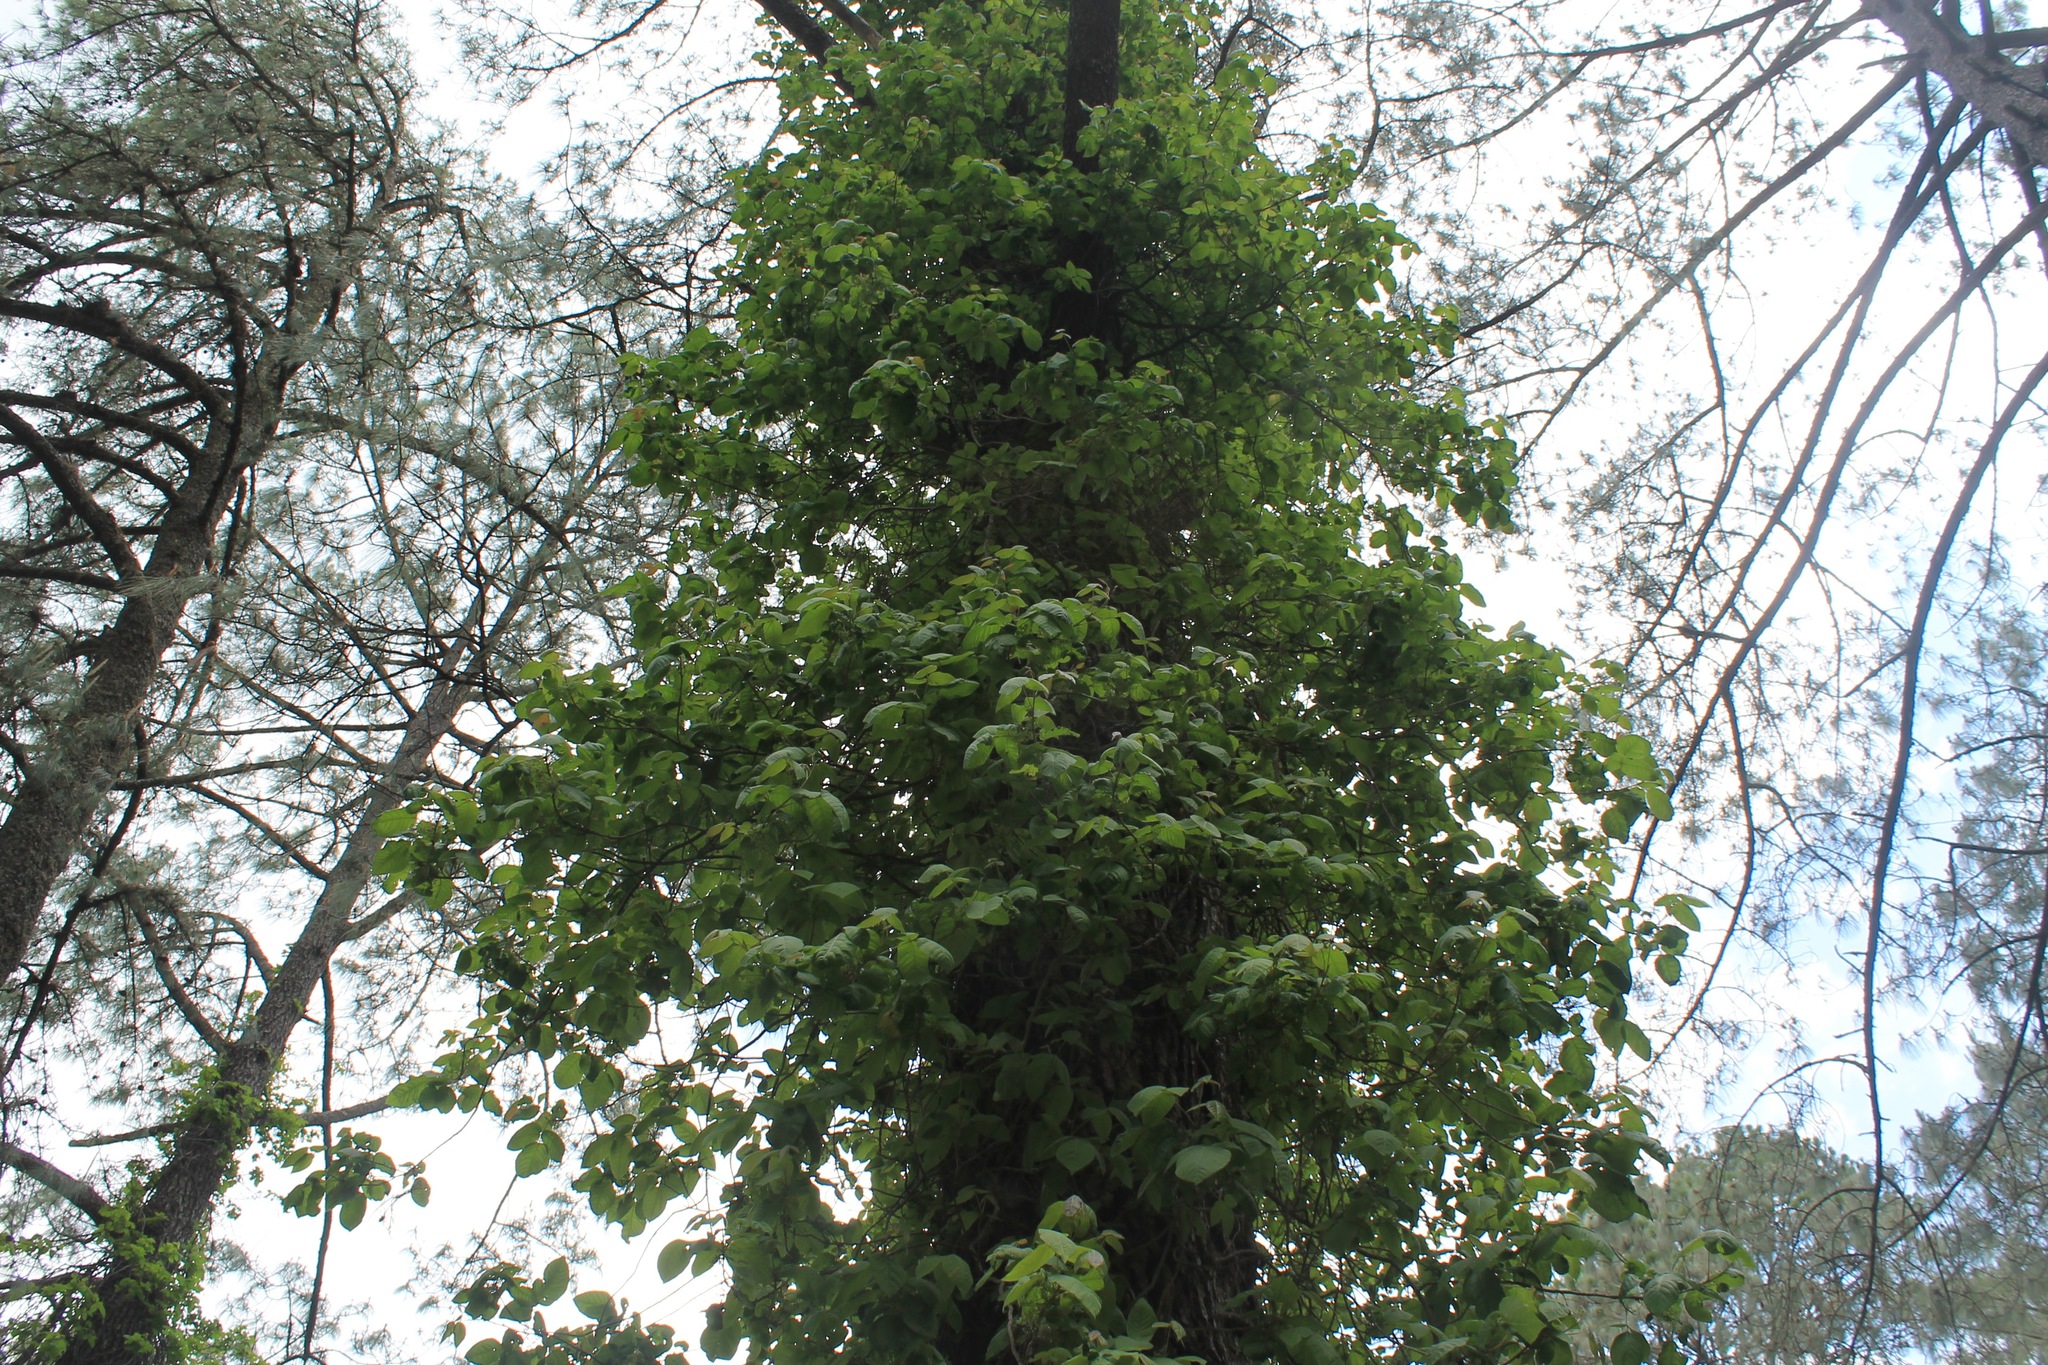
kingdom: Plantae
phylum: Tracheophyta
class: Magnoliopsida
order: Sapindales
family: Anacardiaceae
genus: Toxicodendron
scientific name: Toxicodendron radicans
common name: Poison ivy
